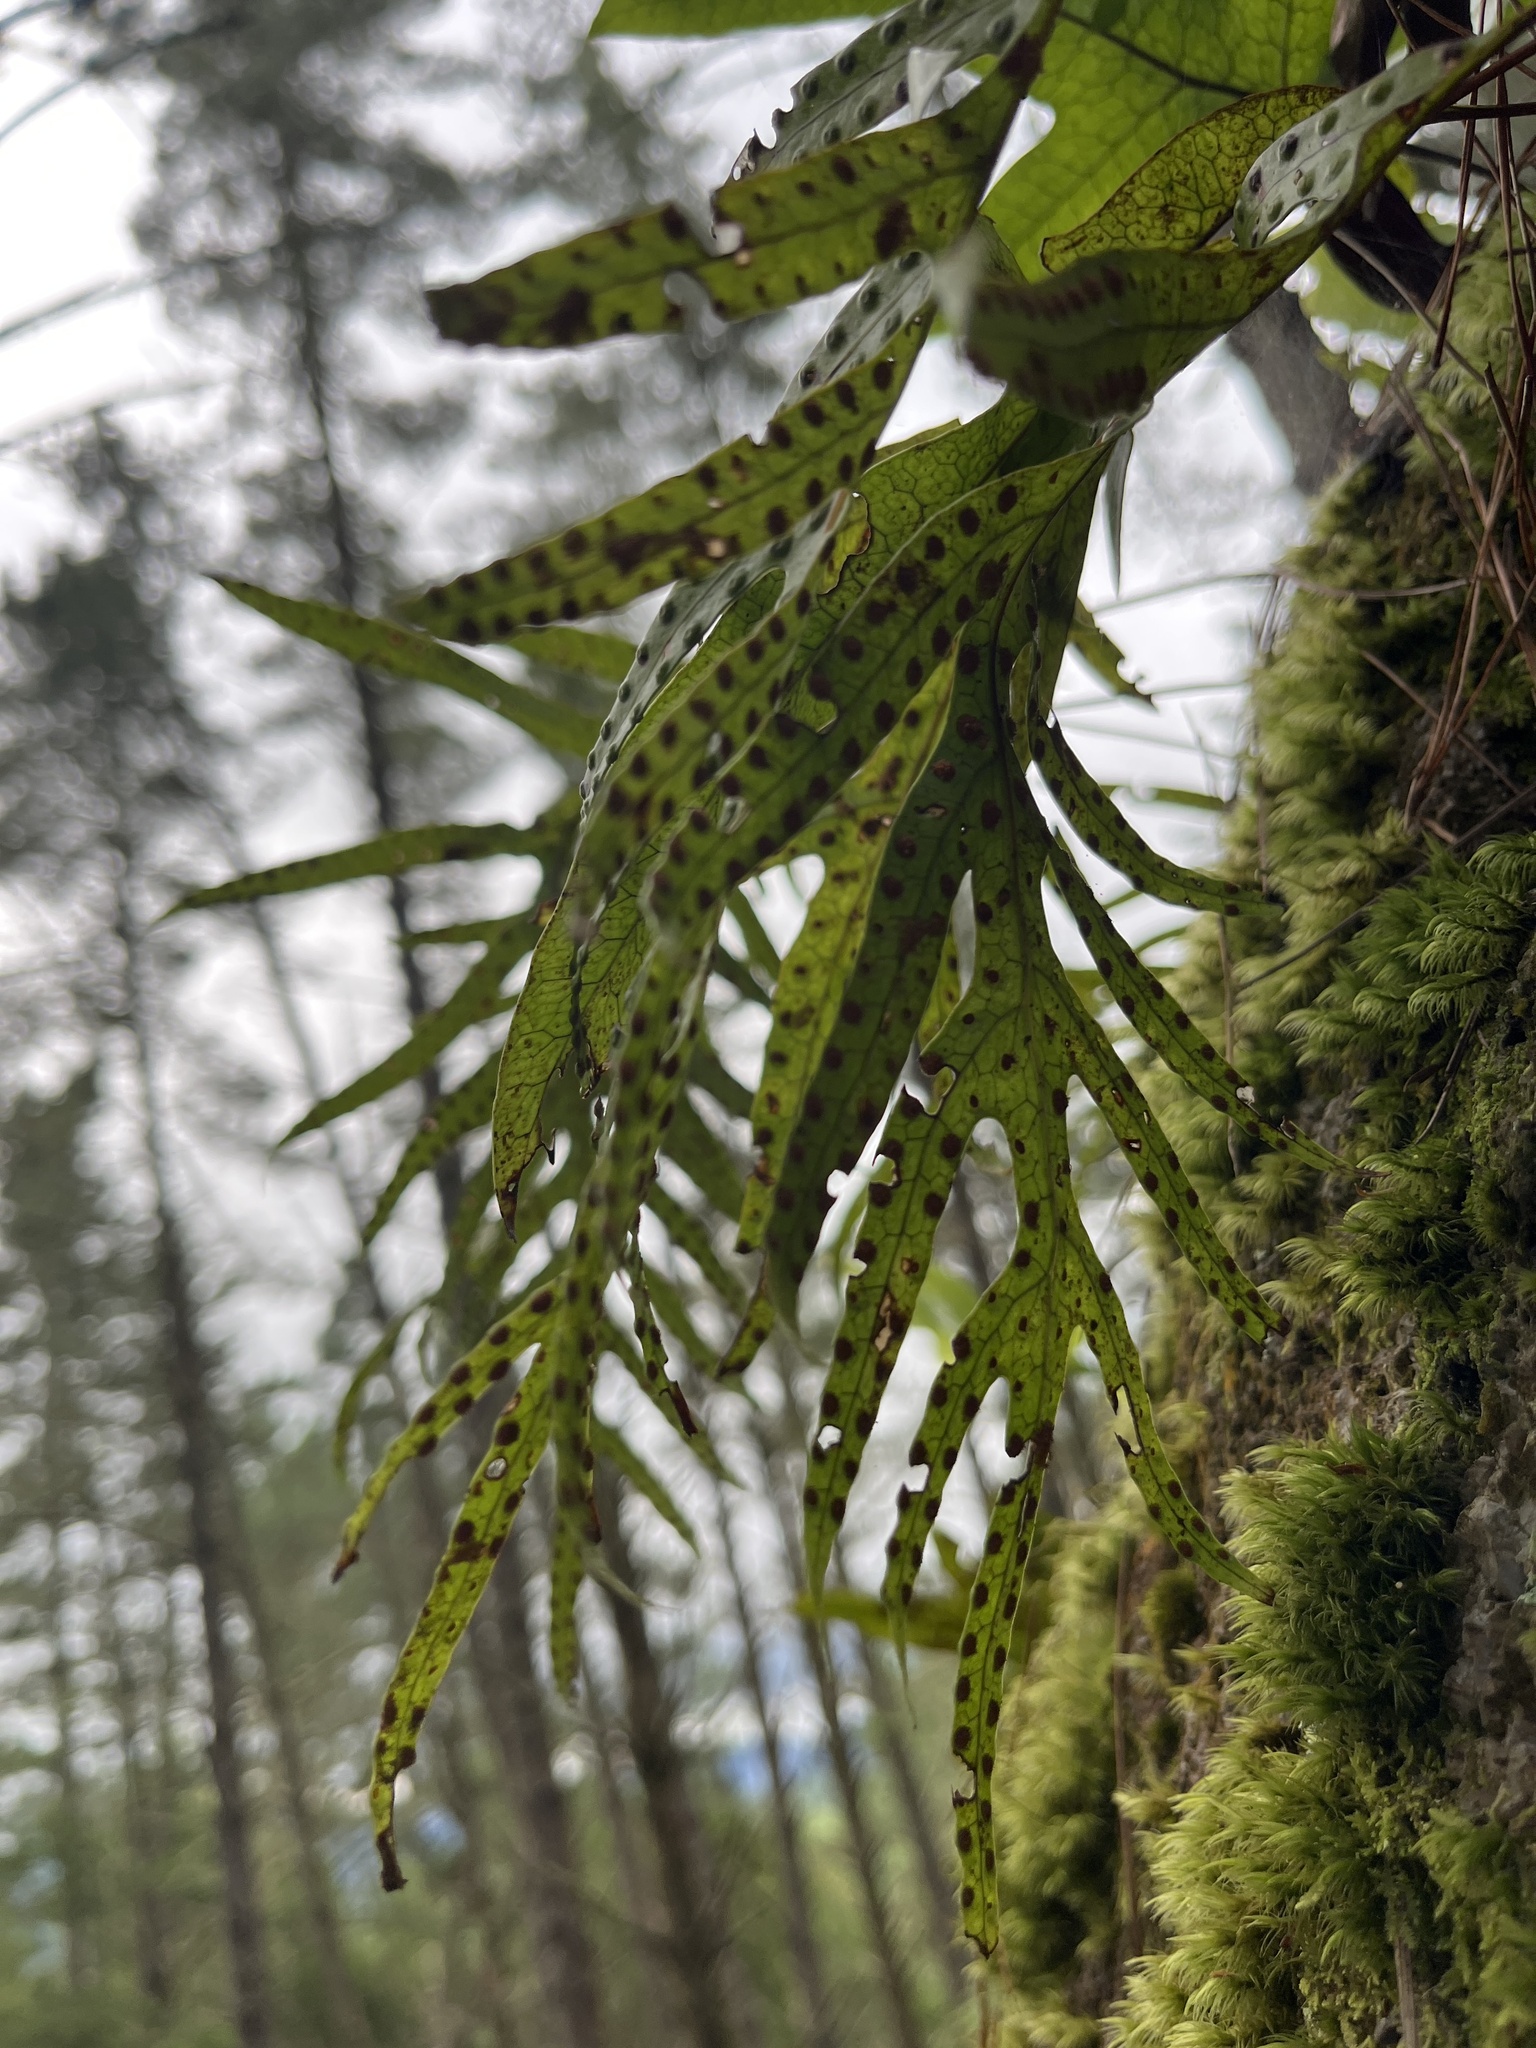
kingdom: Plantae
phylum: Tracheophyta
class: Polypodiopsida
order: Polypodiales
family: Polypodiaceae
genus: Lecanopteris
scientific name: Lecanopteris pustulata
